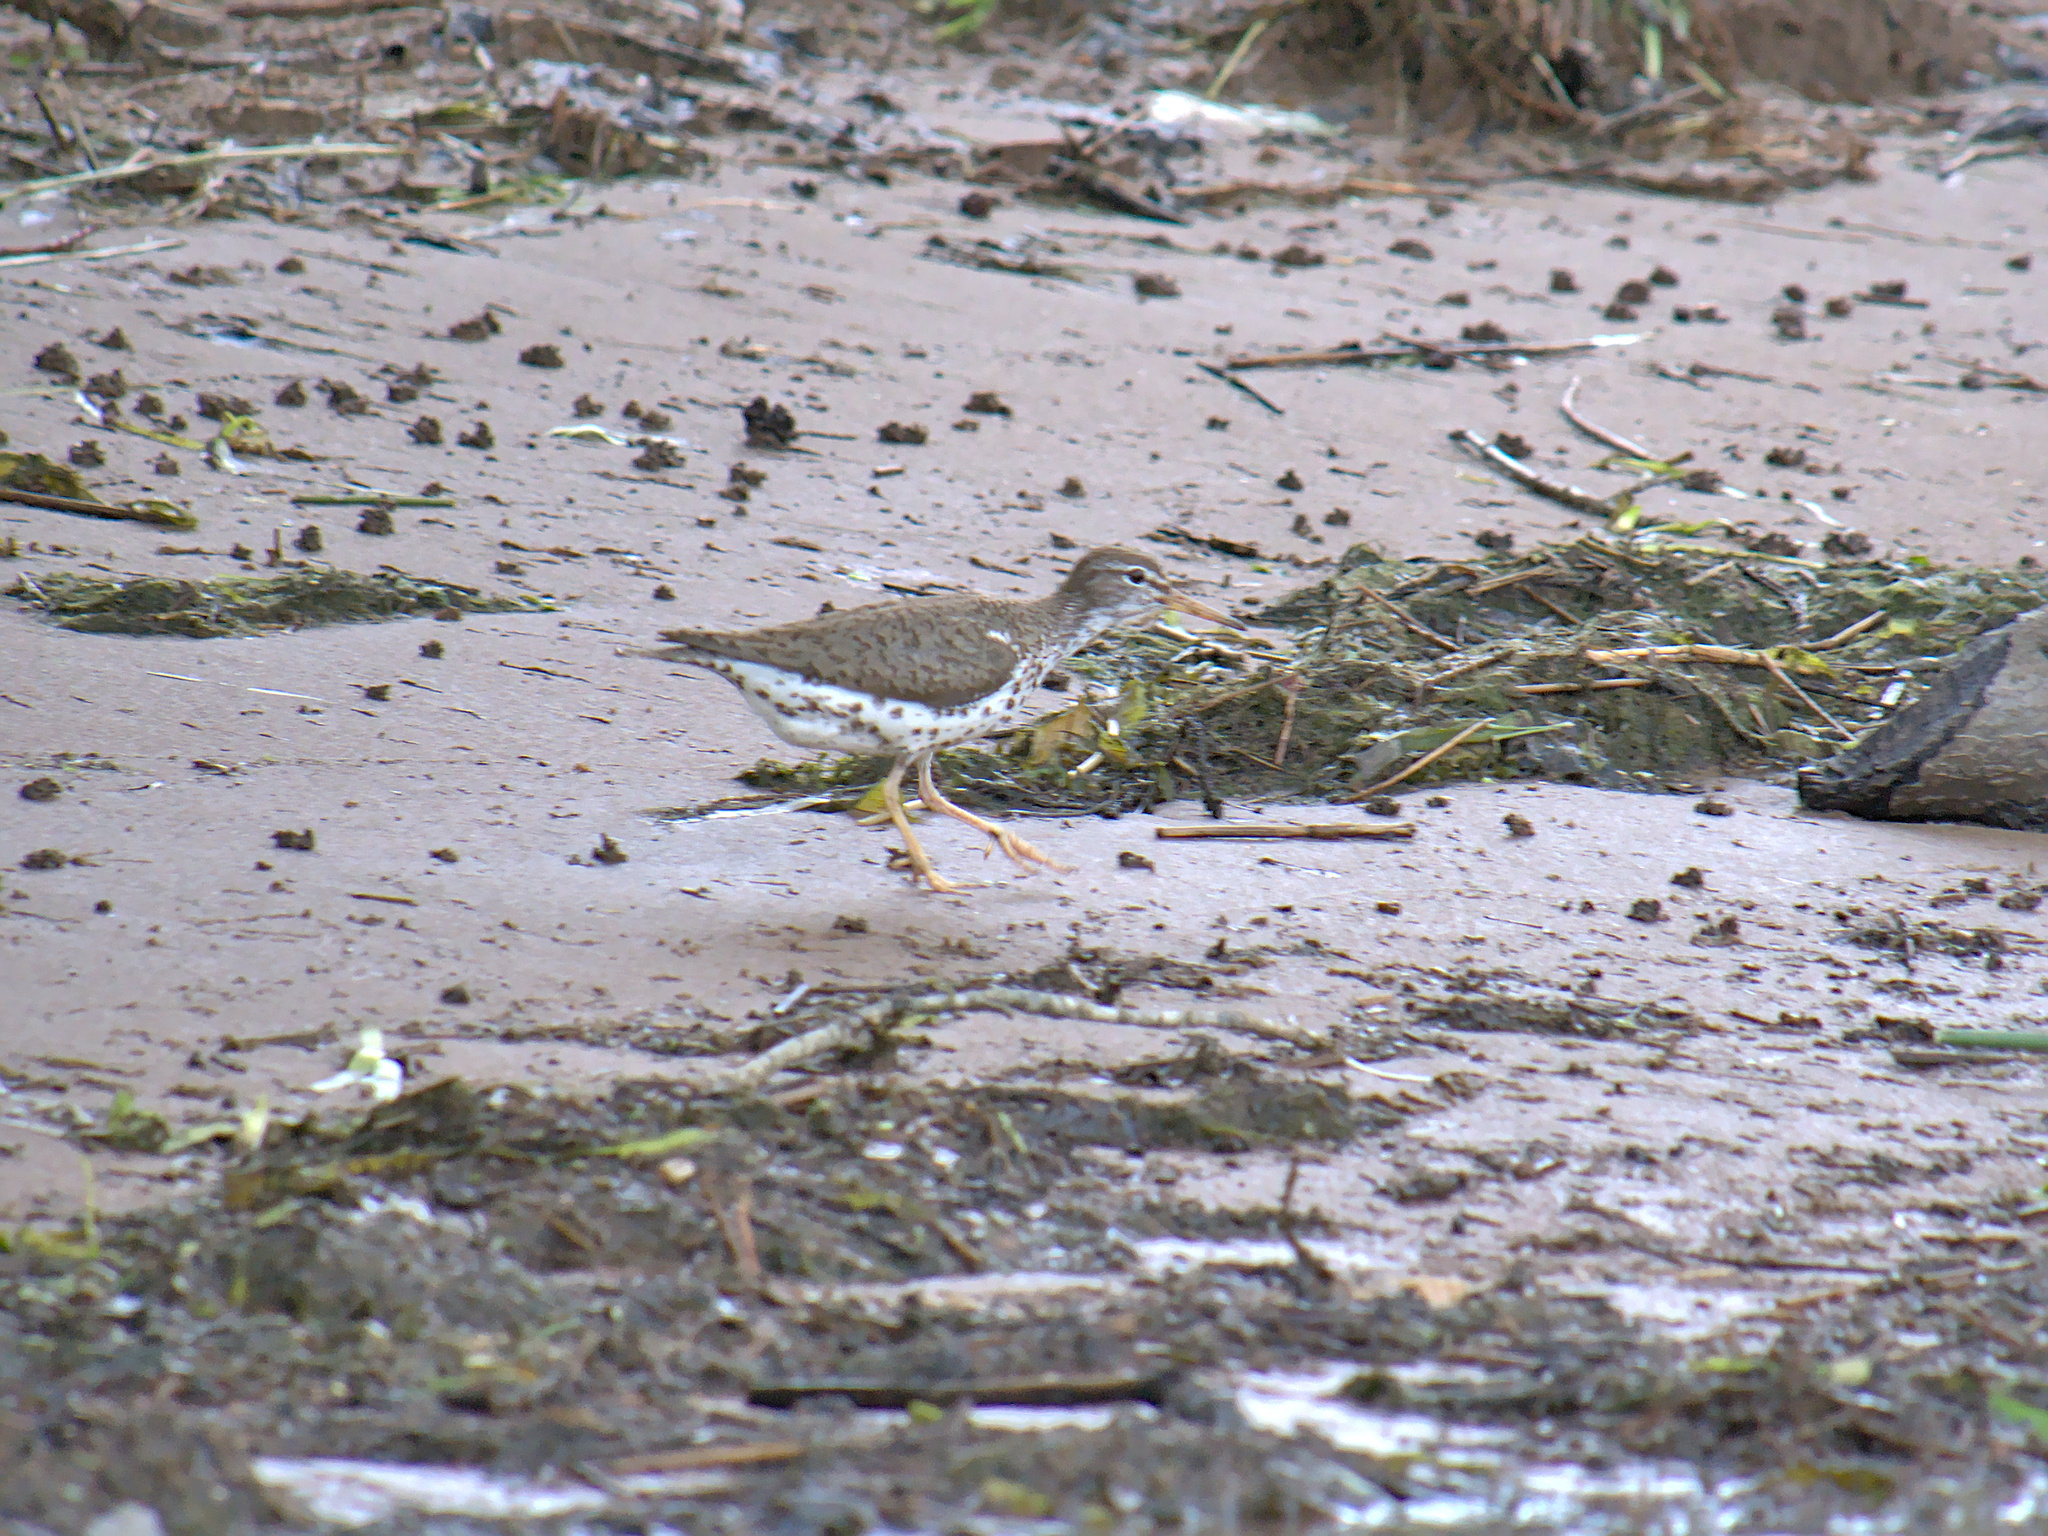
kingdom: Animalia
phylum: Chordata
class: Aves
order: Charadriiformes
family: Scolopacidae
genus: Actitis
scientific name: Actitis macularius
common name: Spotted sandpiper
